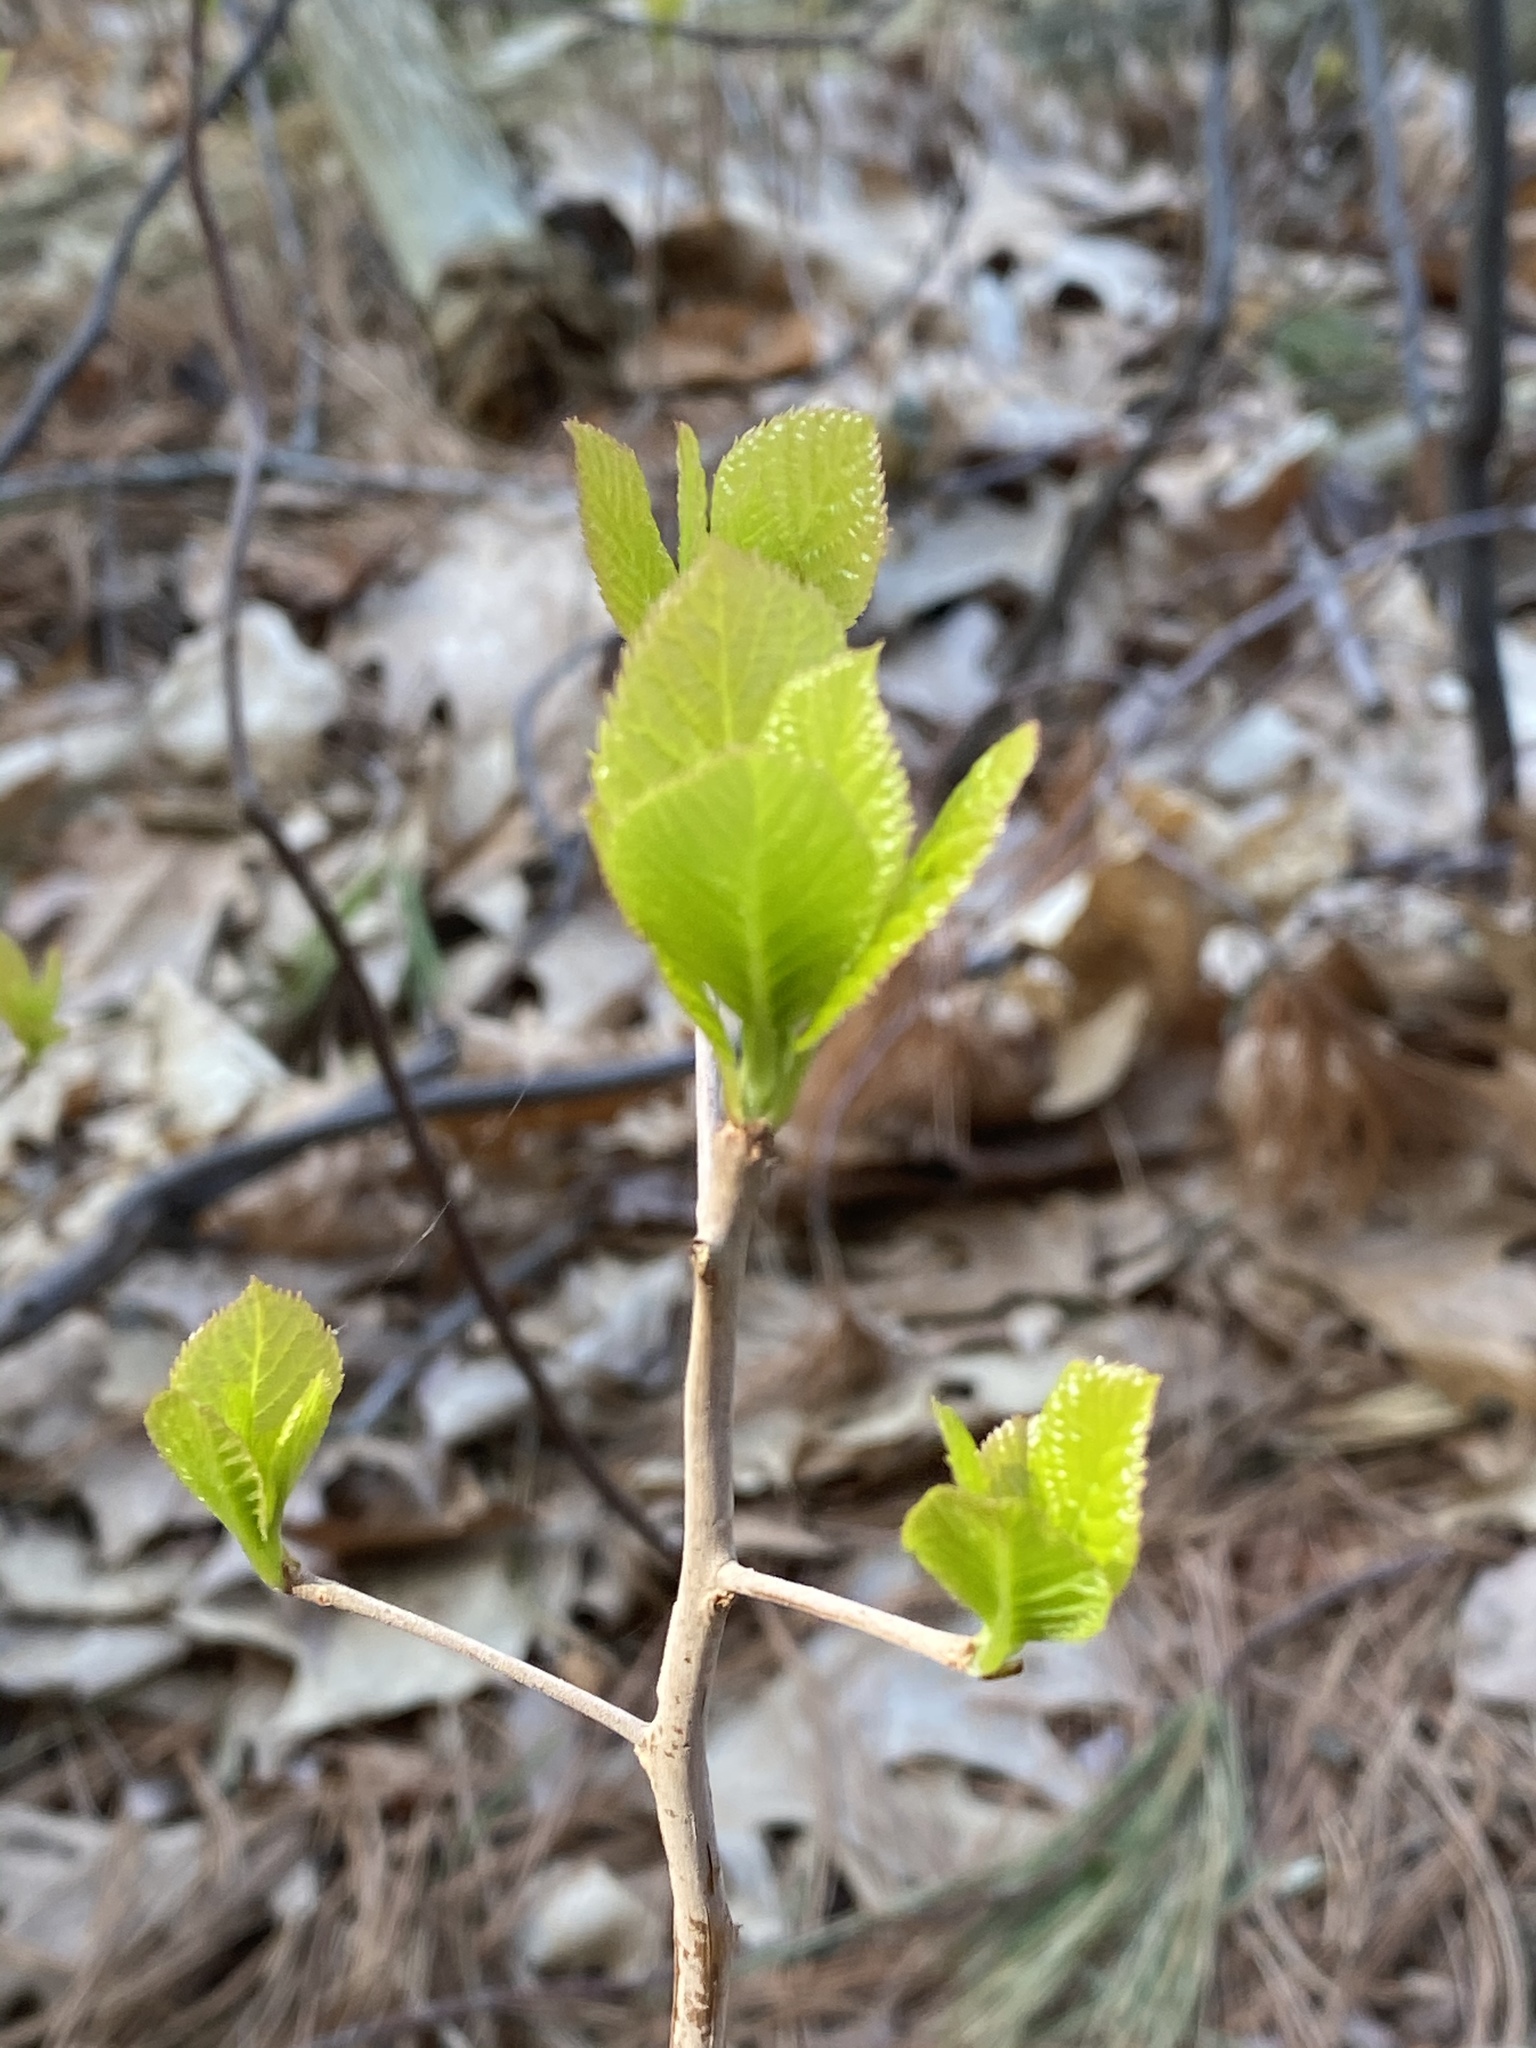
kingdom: Plantae
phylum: Tracheophyta
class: Magnoliopsida
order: Ericales
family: Clethraceae
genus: Clethra
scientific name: Clethra alnifolia
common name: Sweet pepperbush
